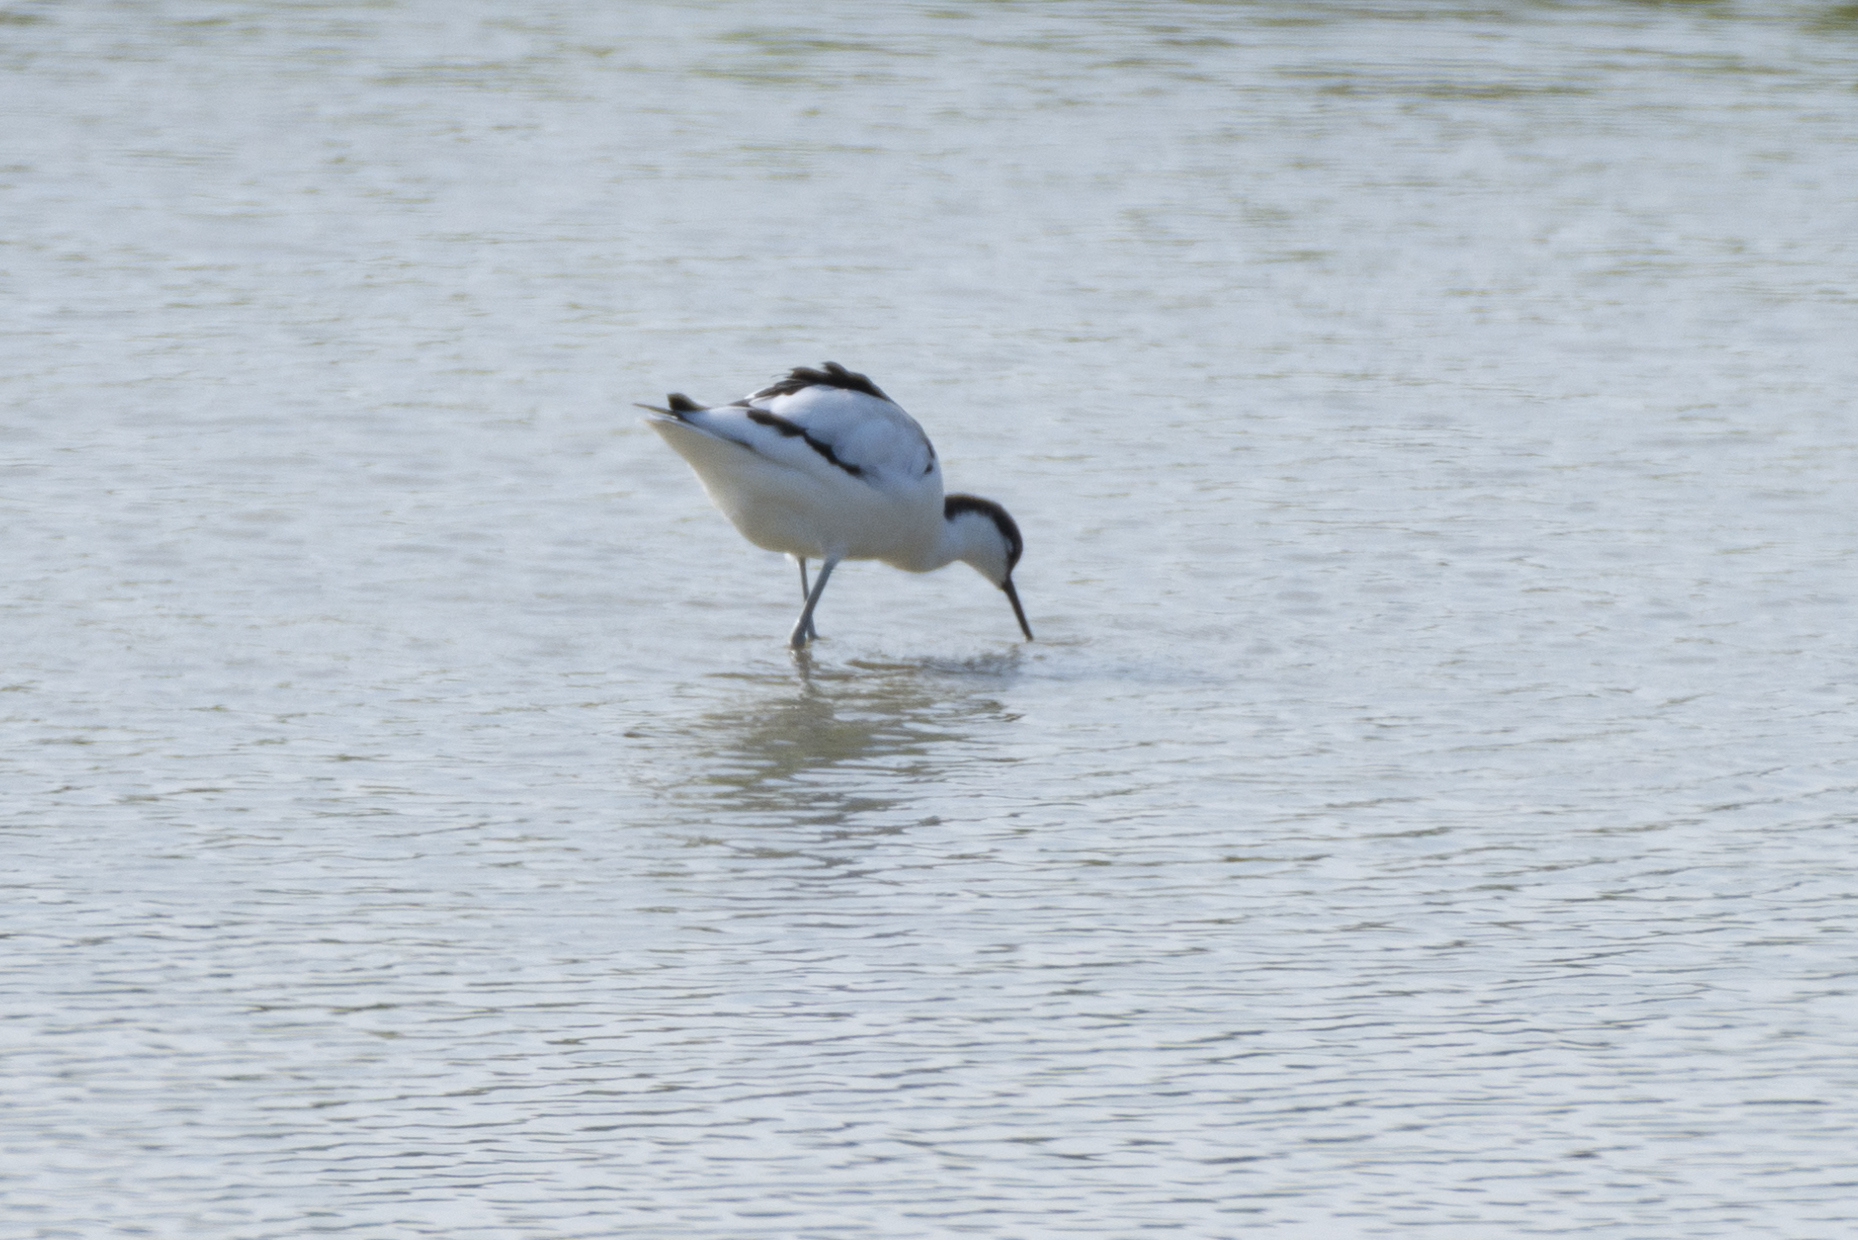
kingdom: Animalia
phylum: Chordata
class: Aves
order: Charadriiformes
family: Recurvirostridae
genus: Recurvirostra
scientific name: Recurvirostra avosetta
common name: Pied avocet
